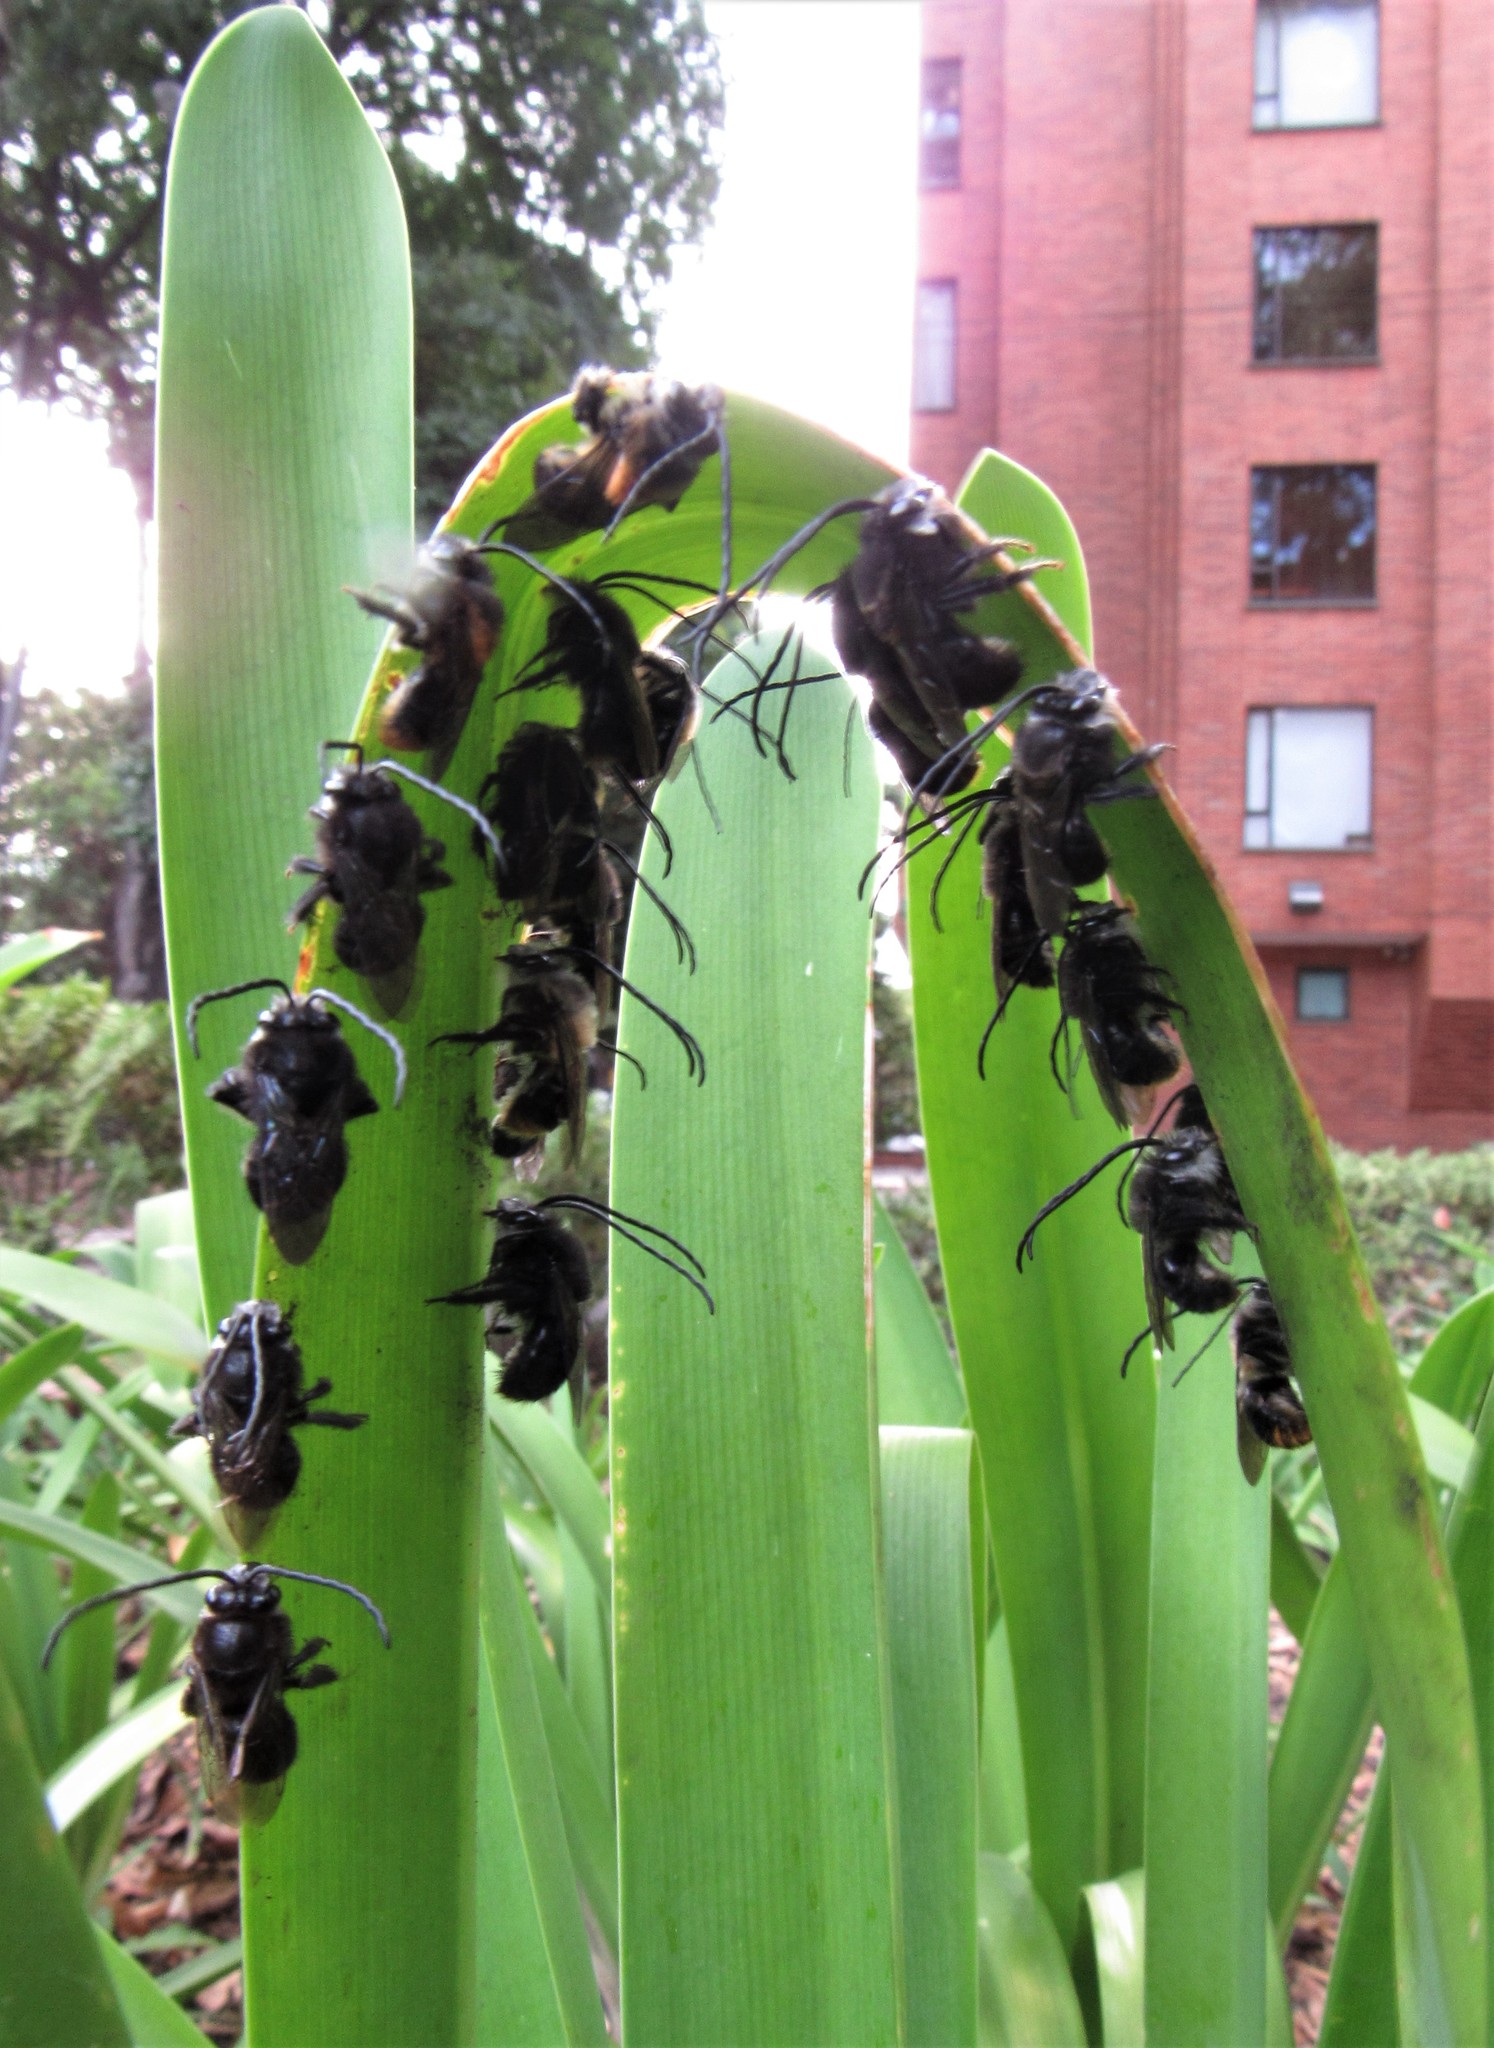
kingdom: Animalia
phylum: Arthropoda
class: Insecta
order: Hymenoptera
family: Apidae
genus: Thygater
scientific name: Thygater aethiops
